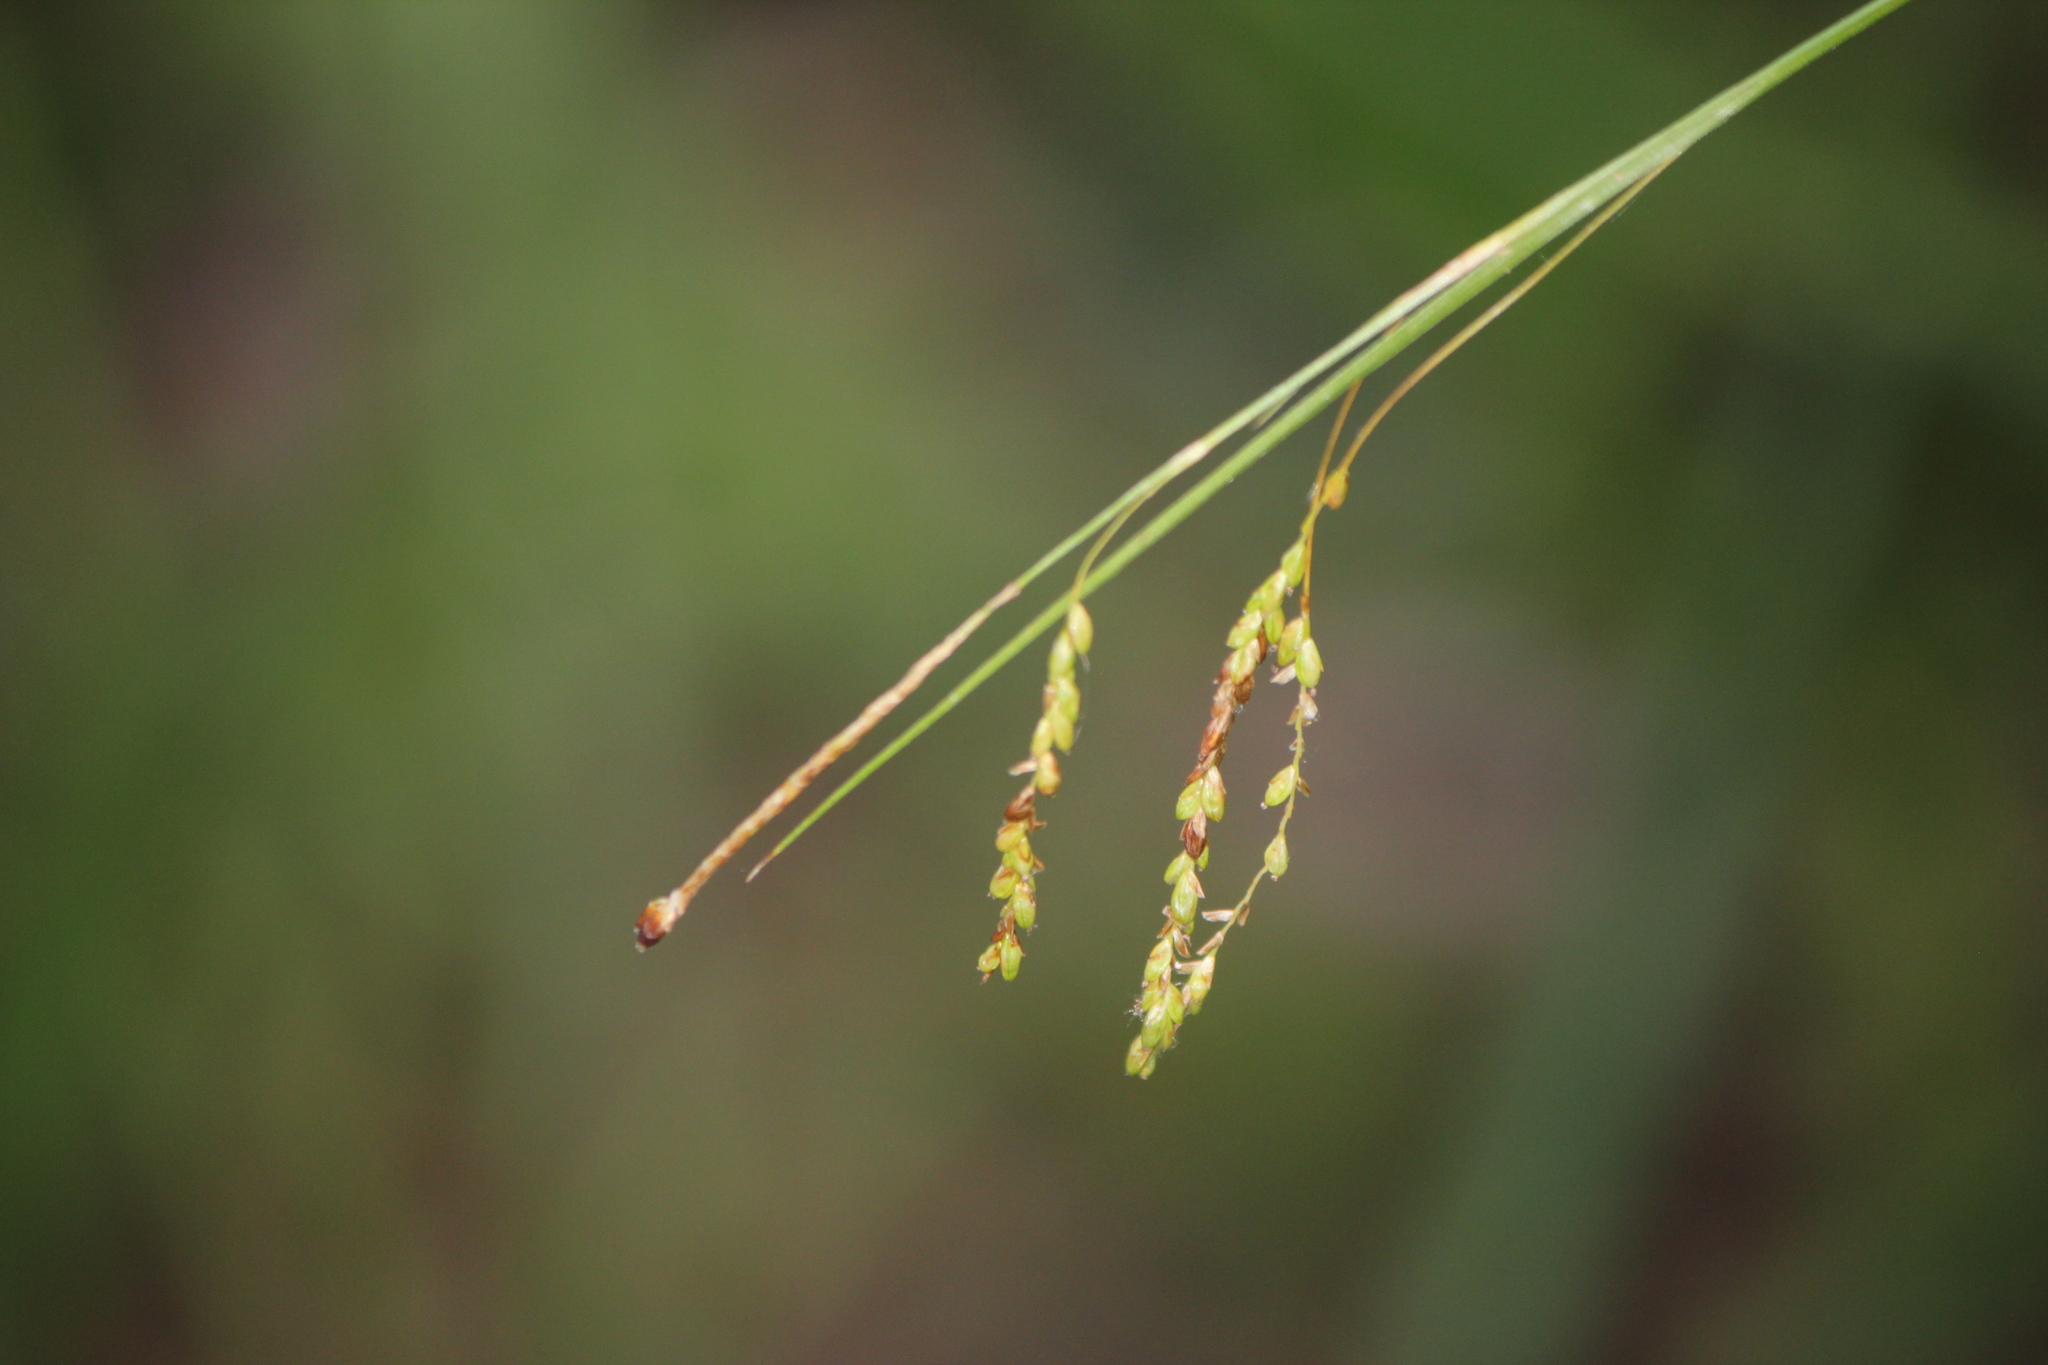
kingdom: Plantae
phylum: Tracheophyta
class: Liliopsida
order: Poales
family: Cyperaceae
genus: Carex
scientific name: Carex gracillima
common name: Graceful sedge
